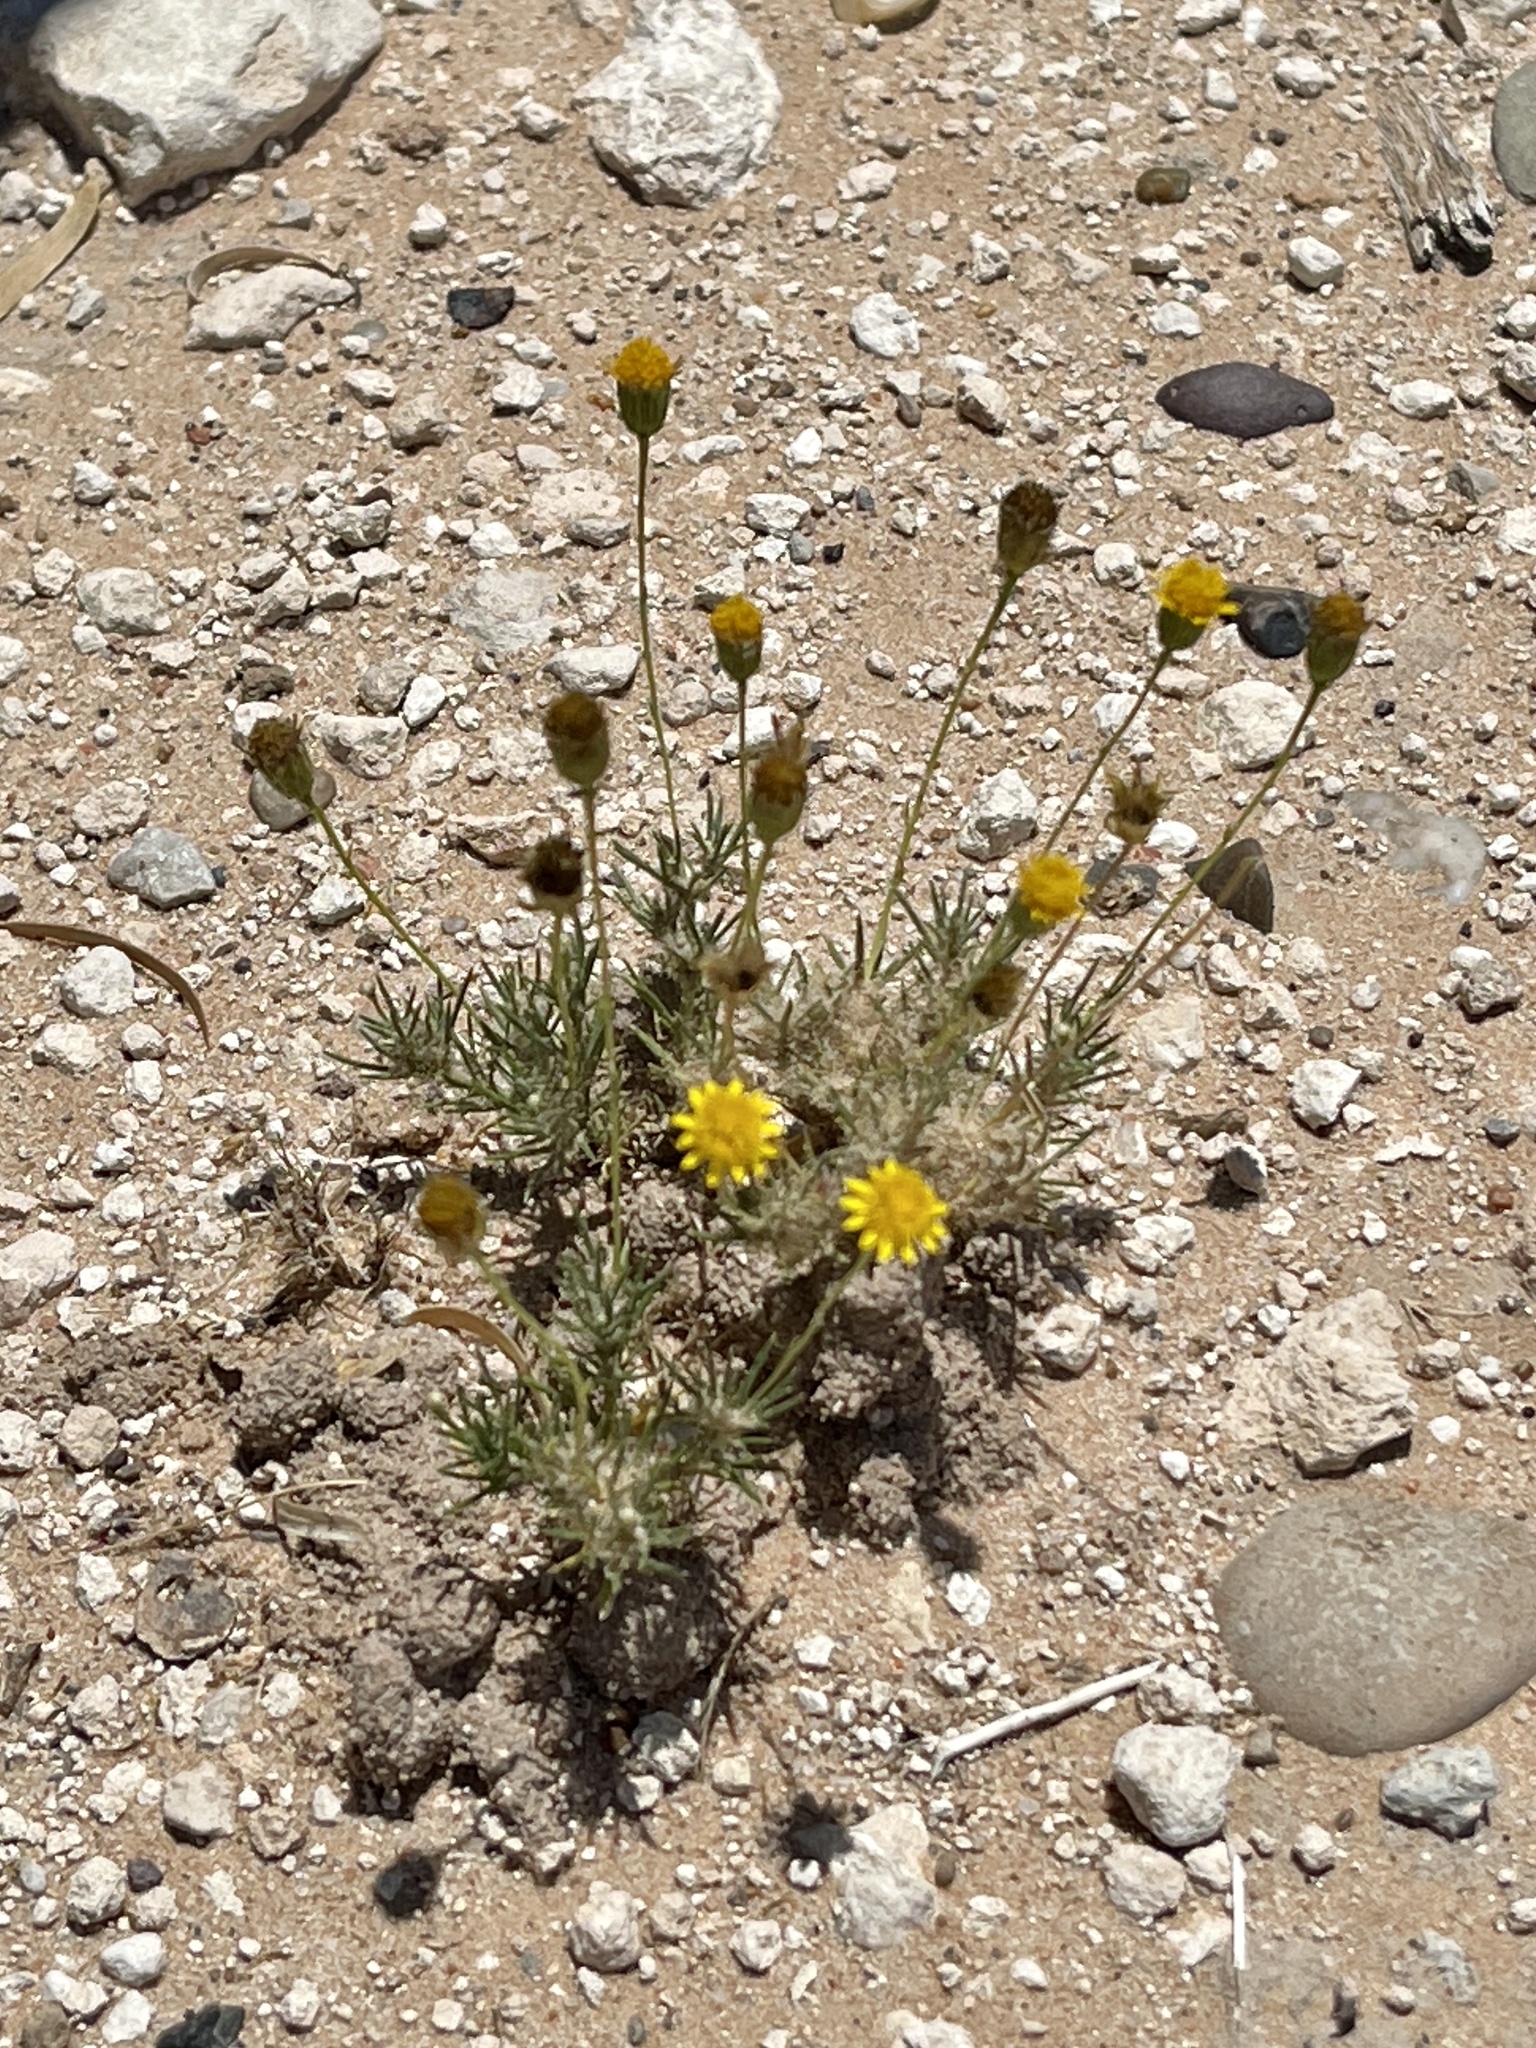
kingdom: Plantae
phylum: Tracheophyta
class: Magnoliopsida
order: Asterales
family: Asteraceae
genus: Thymophylla
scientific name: Thymophylla pentachaeta
